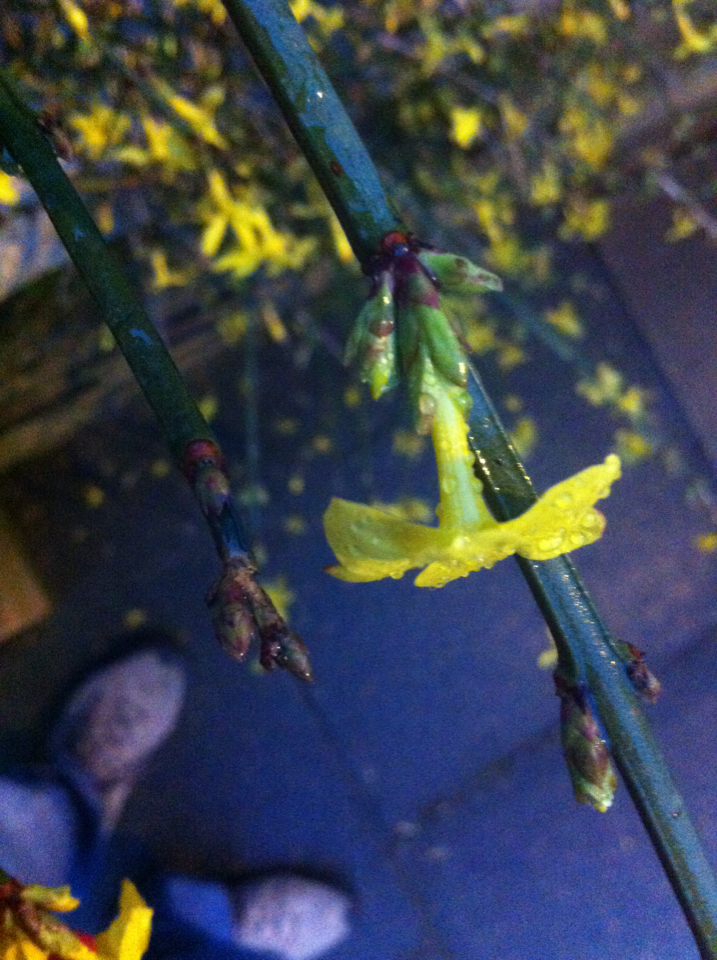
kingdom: Plantae
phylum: Tracheophyta
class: Magnoliopsida
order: Lamiales
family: Oleaceae
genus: Jasminum
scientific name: Jasminum nudiflorum
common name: Winter jasmine
